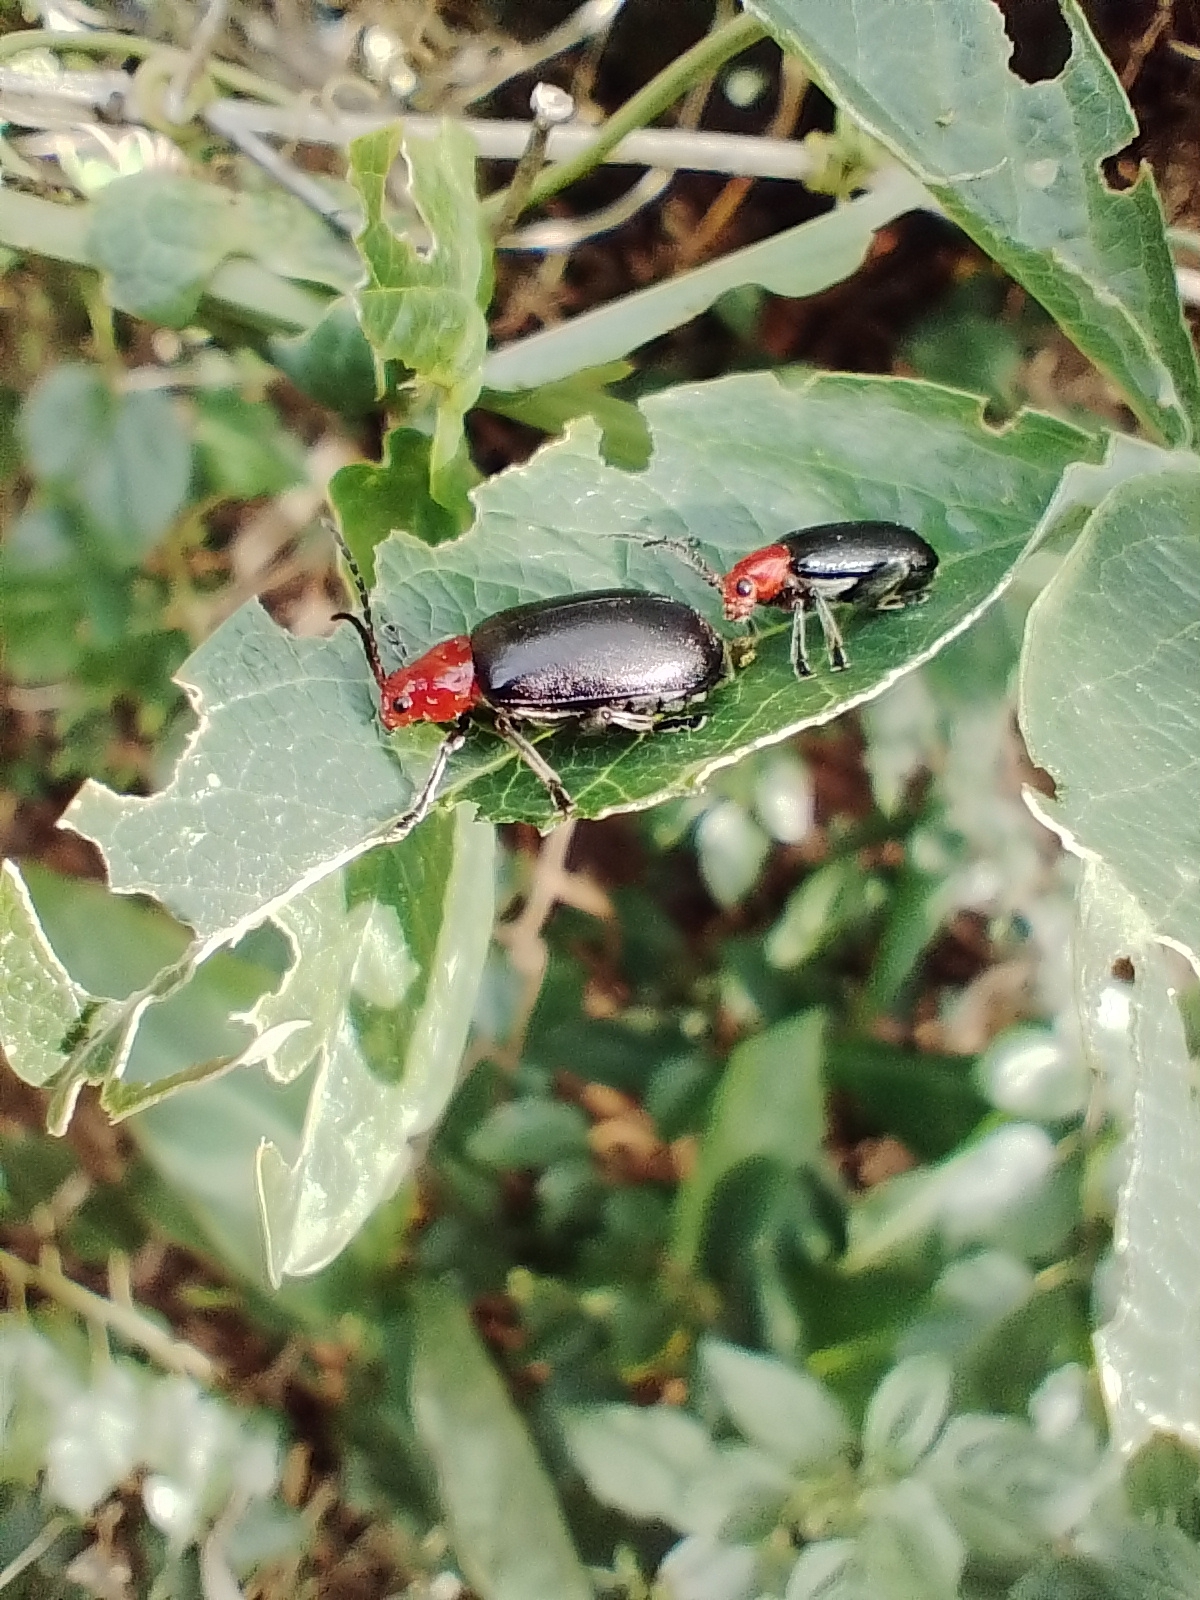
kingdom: Animalia
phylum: Arthropoda
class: Insecta
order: Coleoptera
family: Chrysomelidae
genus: Cacoscelis
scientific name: Cacoscelis
